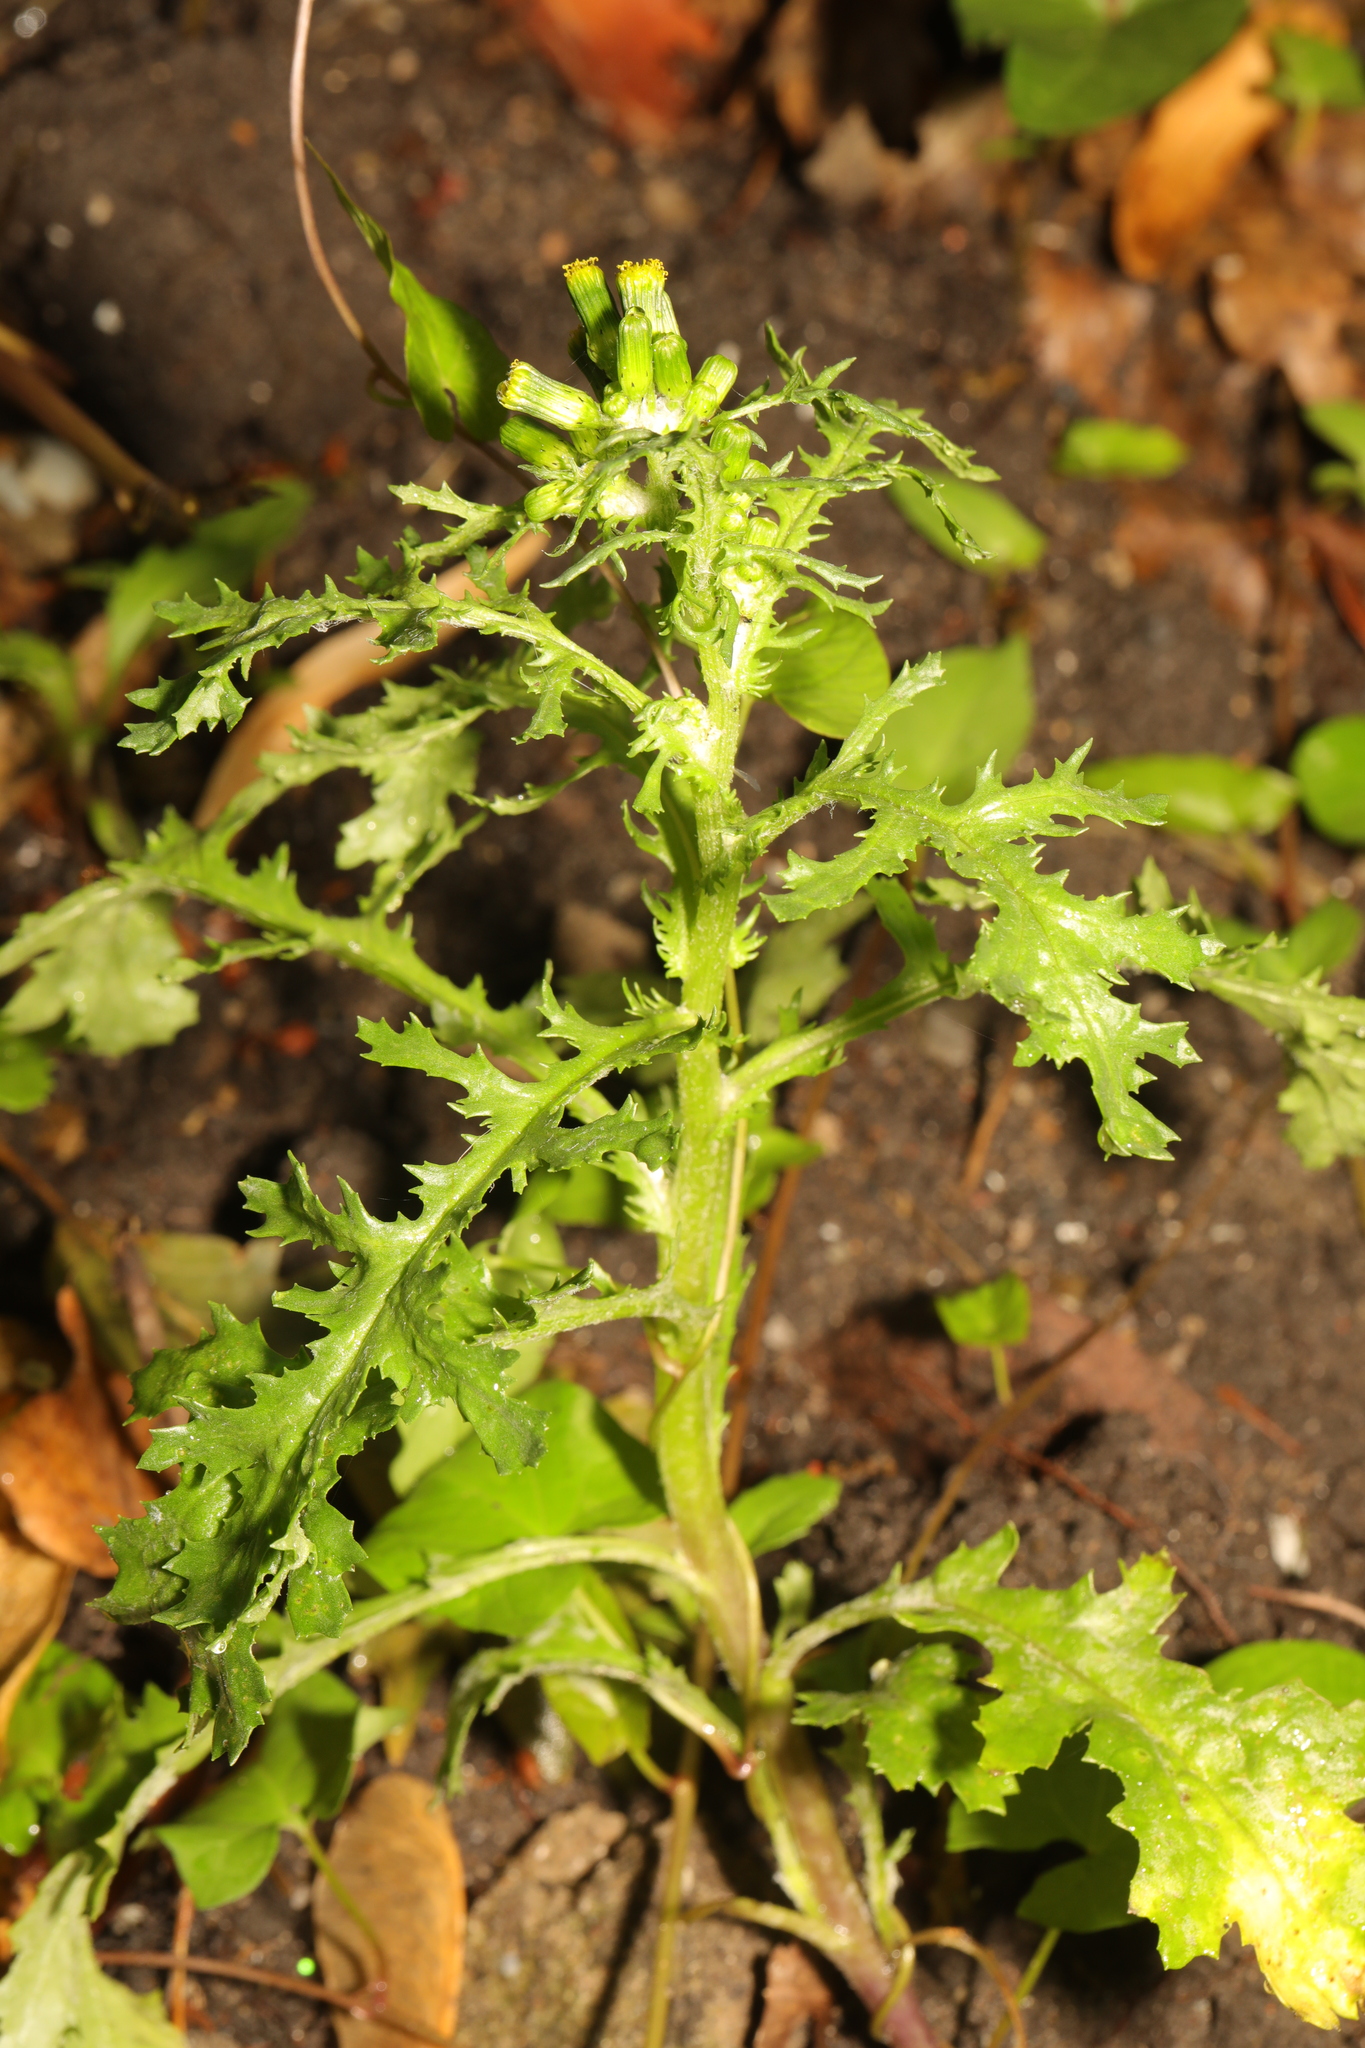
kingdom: Plantae
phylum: Tracheophyta
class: Magnoliopsida
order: Asterales
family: Asteraceae
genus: Senecio
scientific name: Senecio vulgaris
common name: Old-man-in-the-spring
